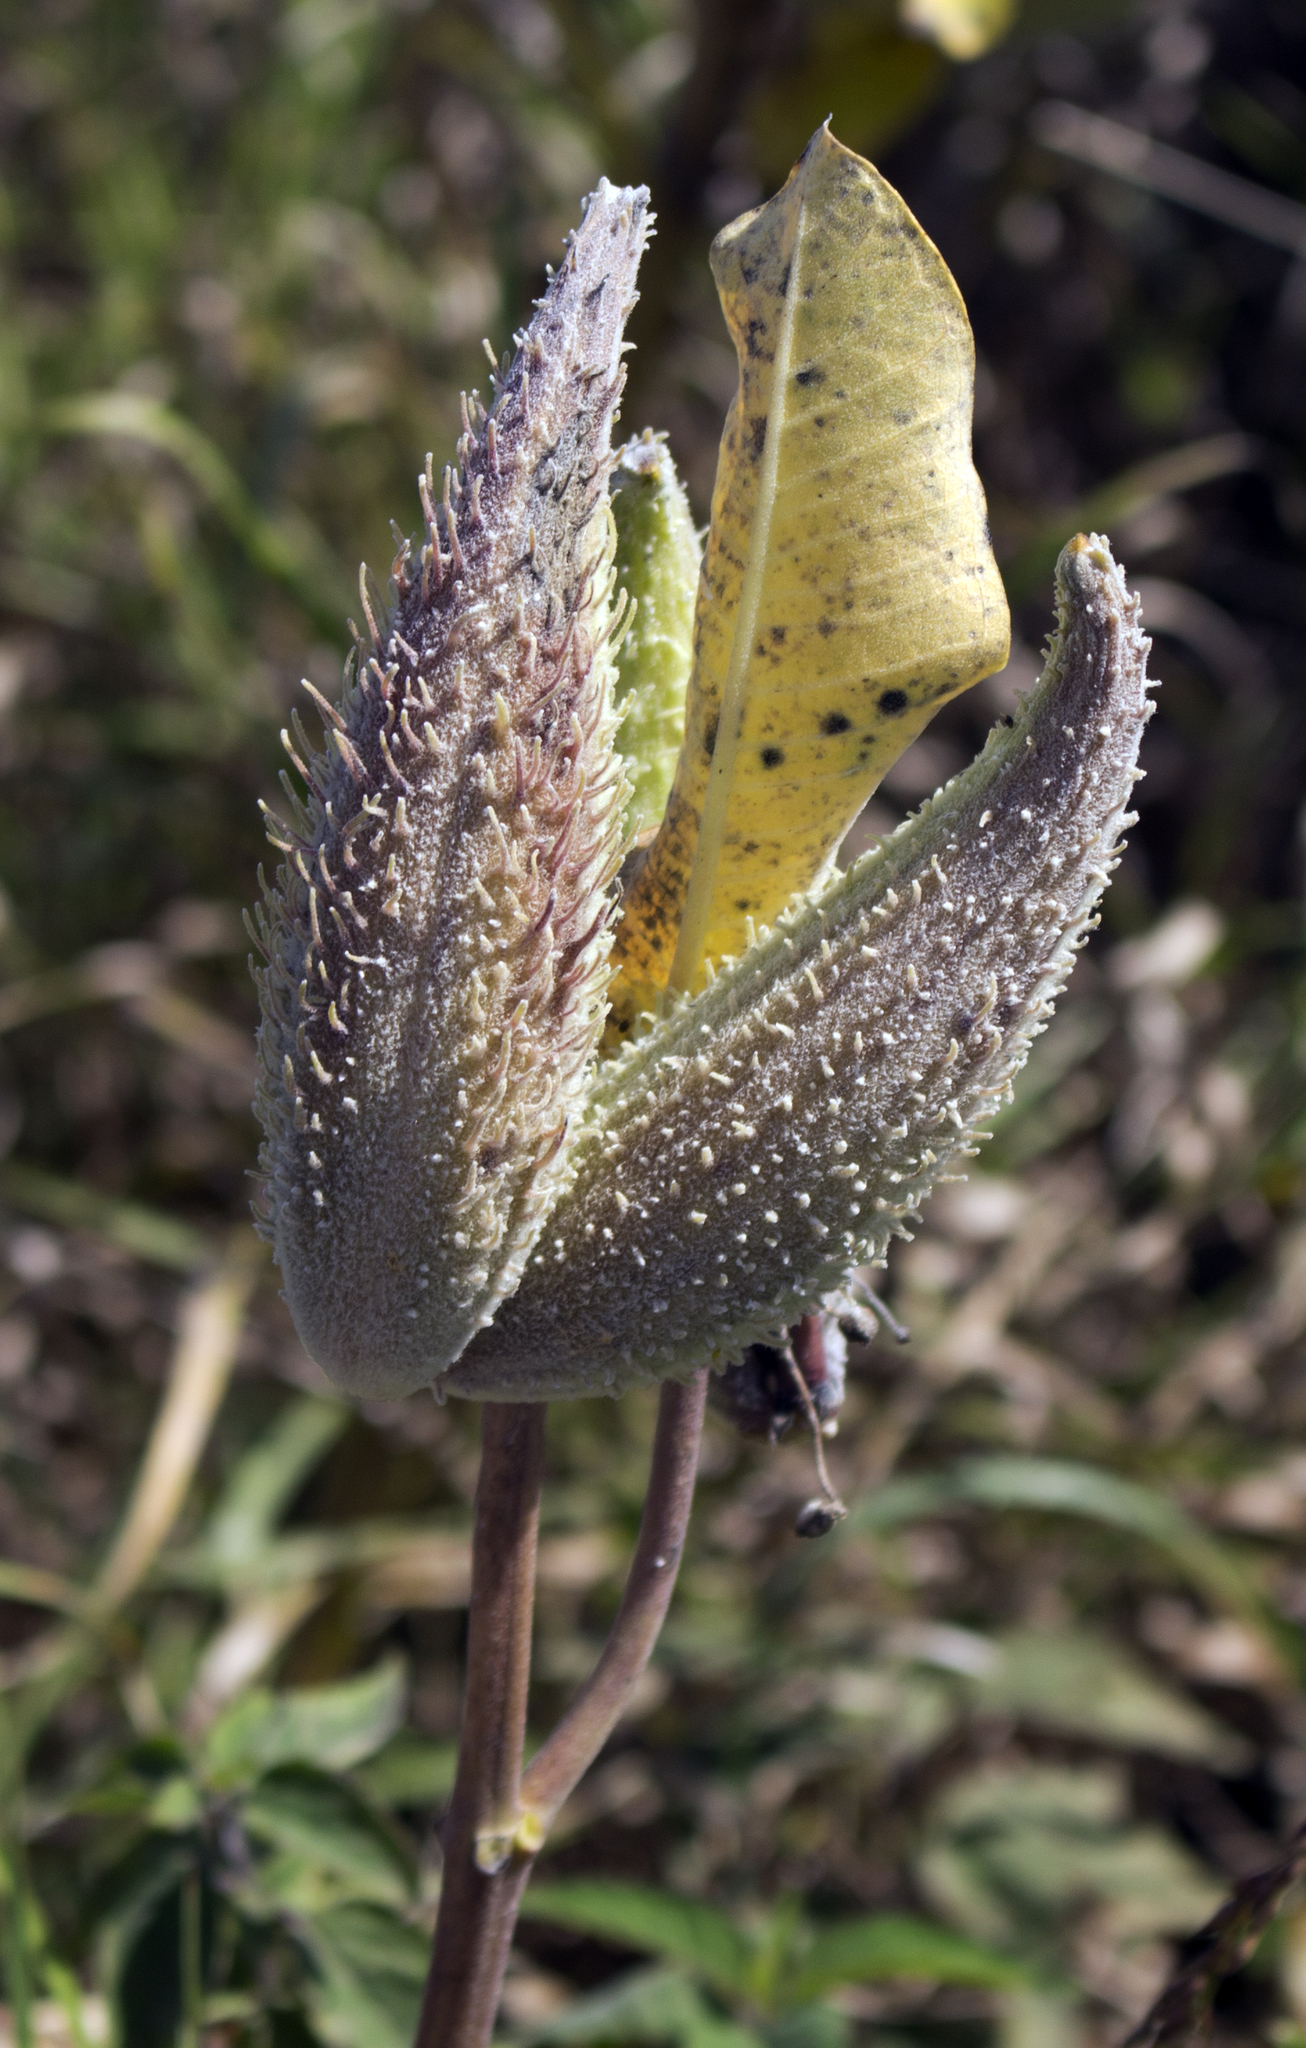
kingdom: Plantae
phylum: Tracheophyta
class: Magnoliopsida
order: Gentianales
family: Apocynaceae
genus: Asclepias
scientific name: Asclepias syriaca
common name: Common milkweed
